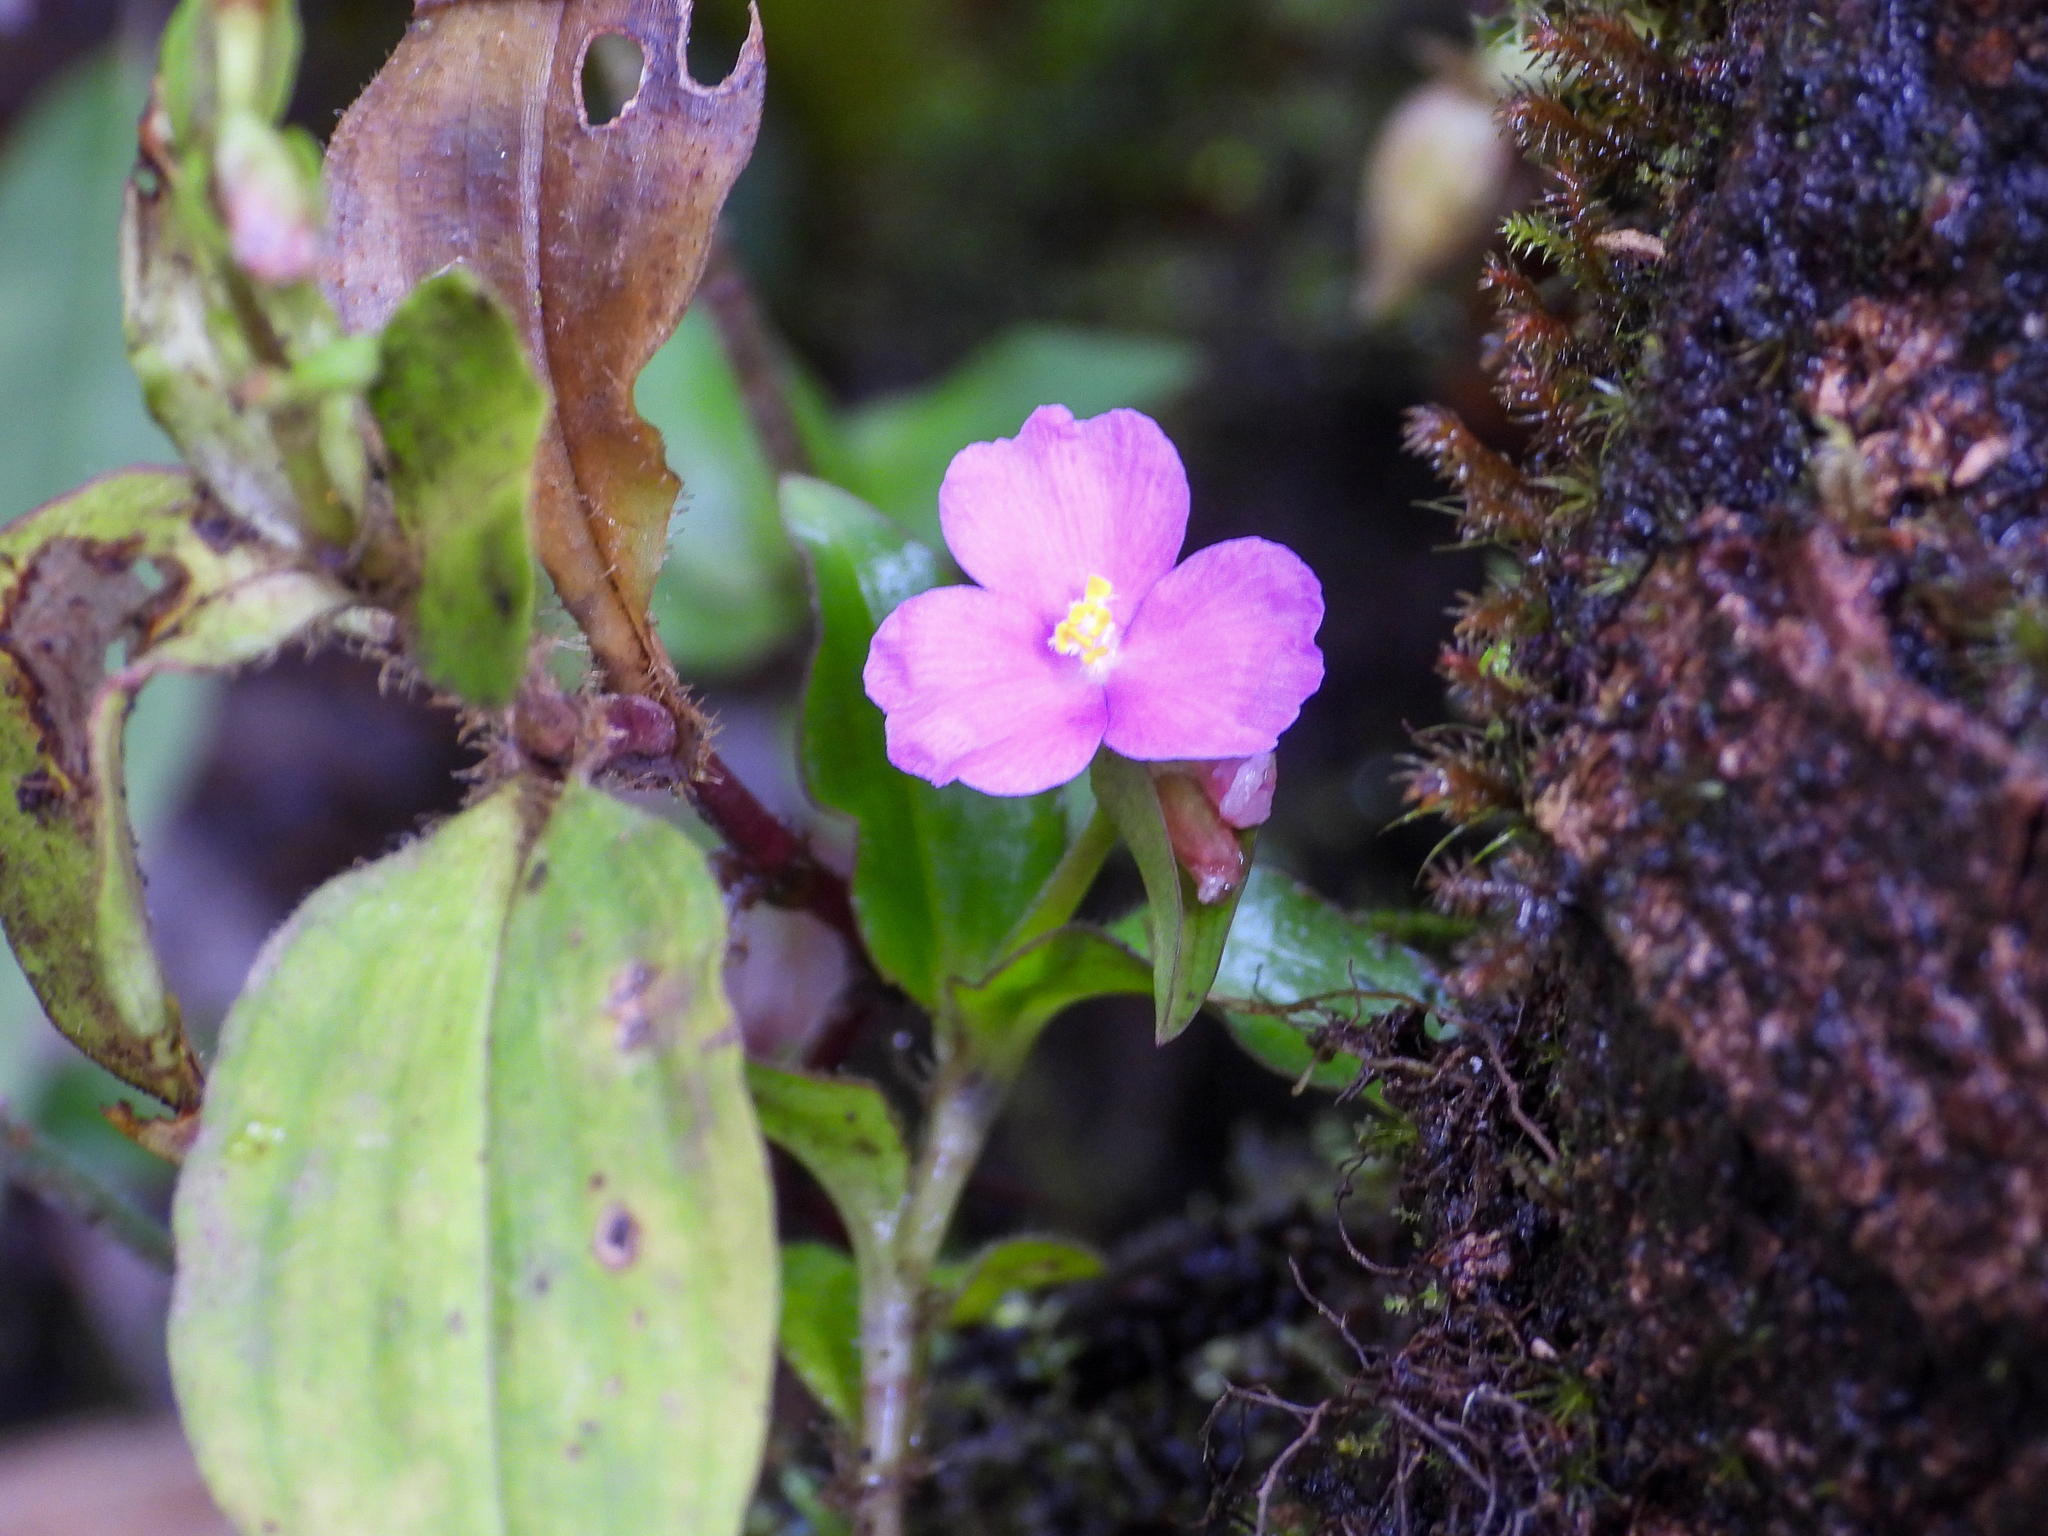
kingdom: Plantae
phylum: Tracheophyta
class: Liliopsida
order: Commelinales
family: Commelinaceae
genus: Tradescantia
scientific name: Tradescantia poelliae
